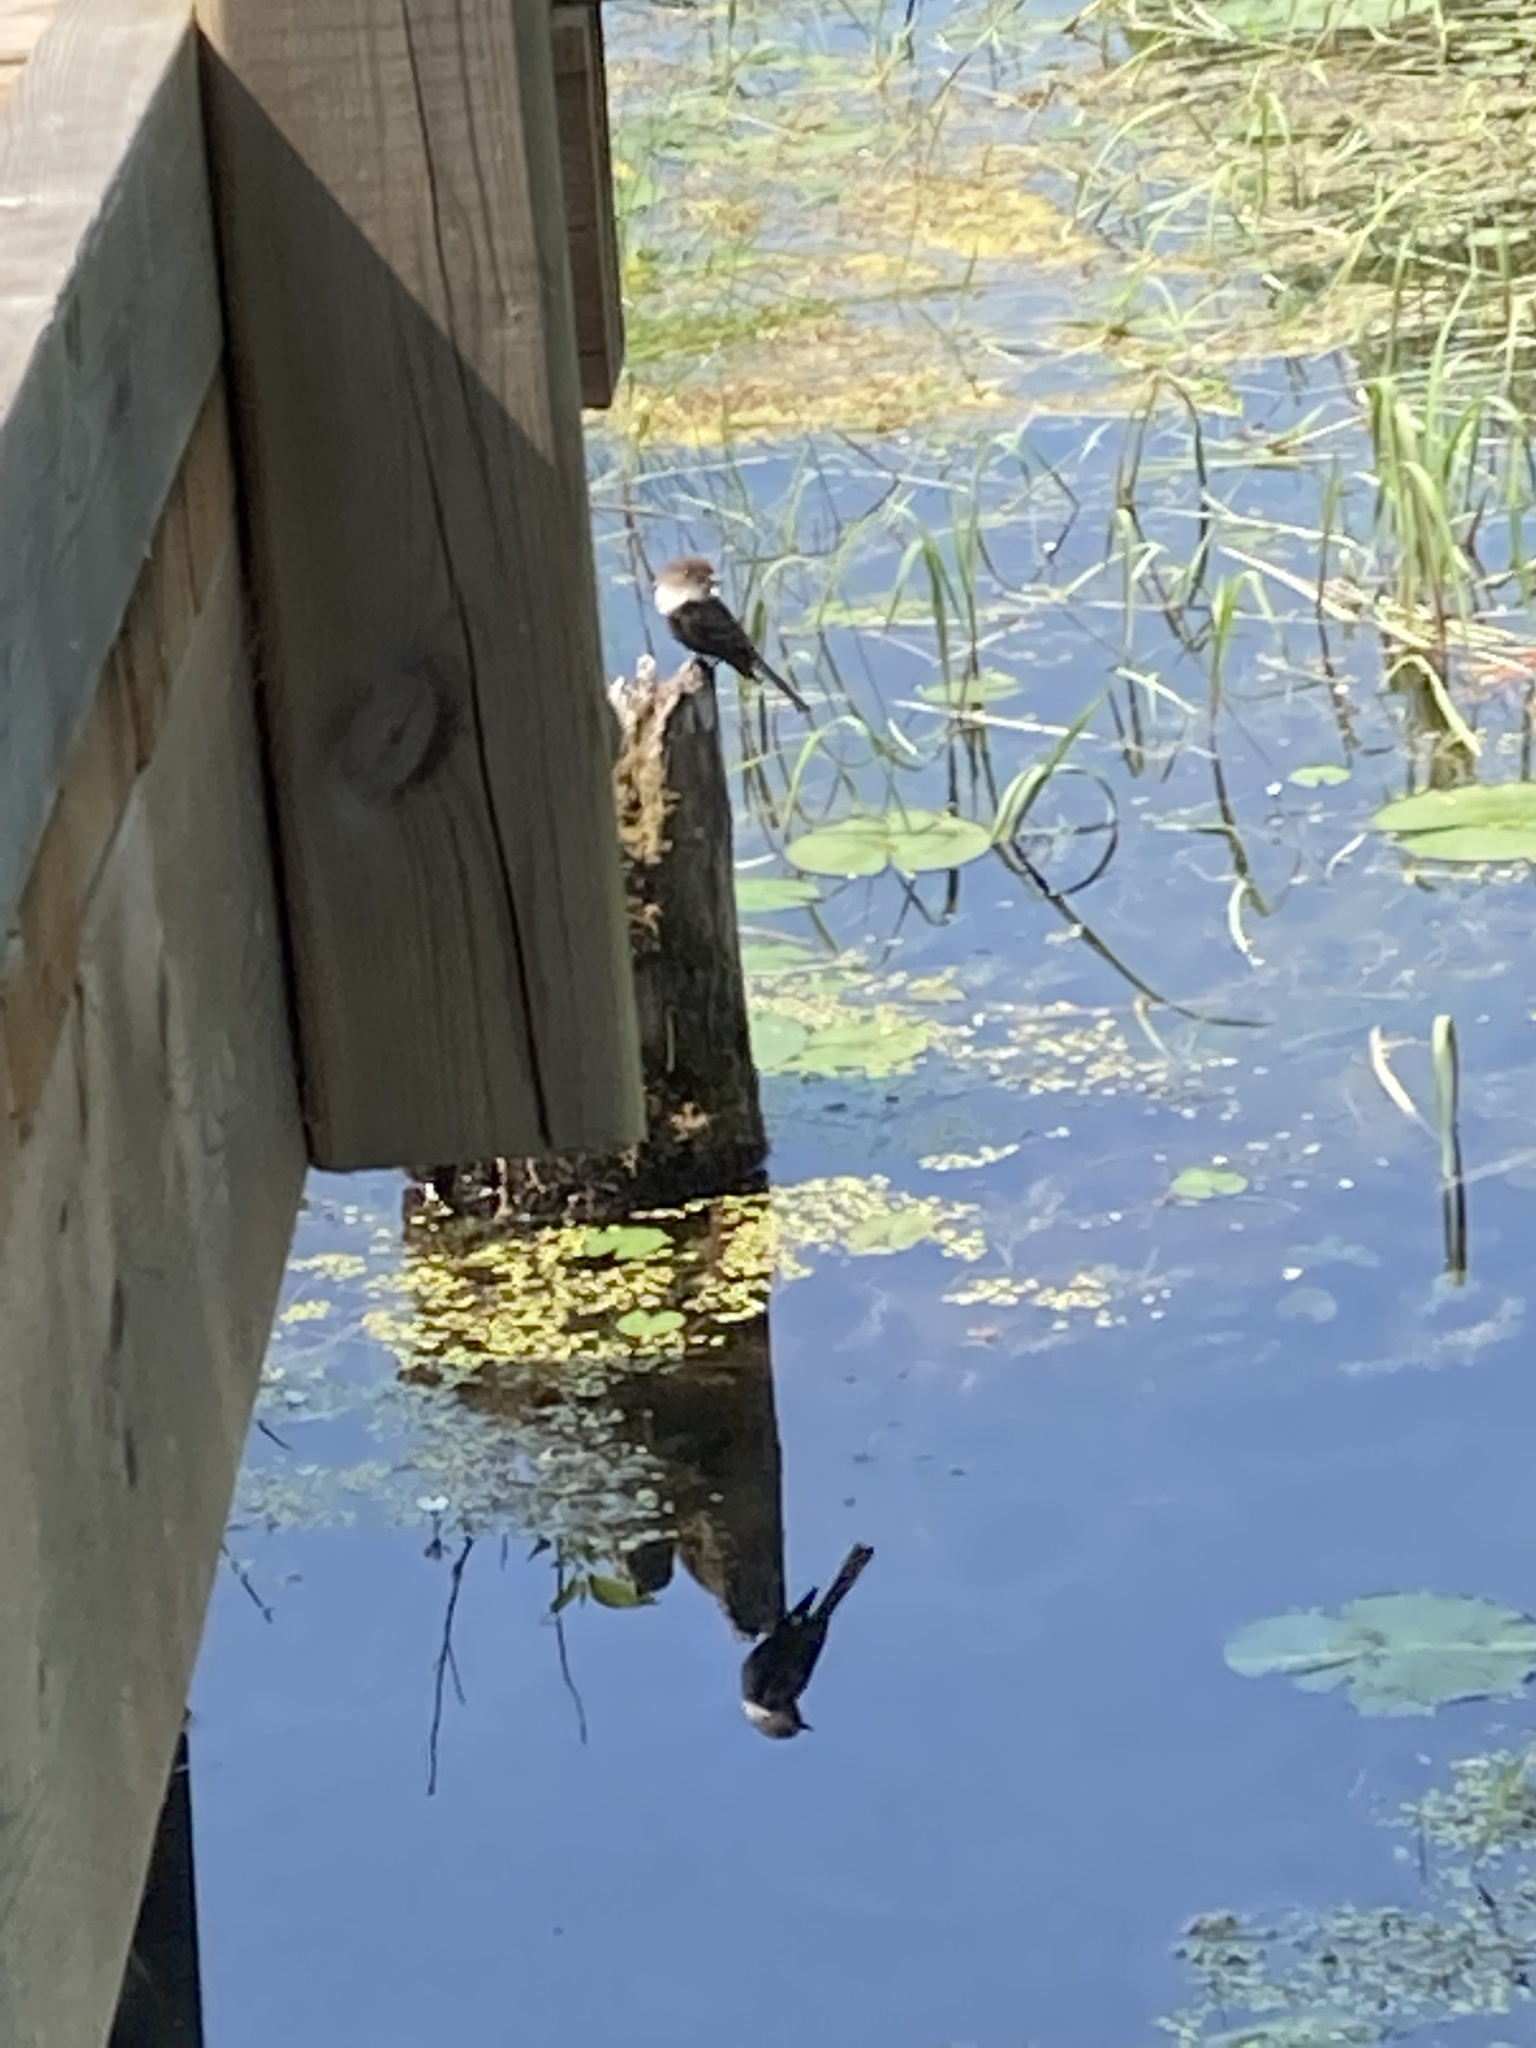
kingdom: Animalia
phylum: Chordata
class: Aves
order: Passeriformes
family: Tyrannidae
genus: Sayornis
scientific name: Sayornis phoebe
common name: Eastern phoebe
